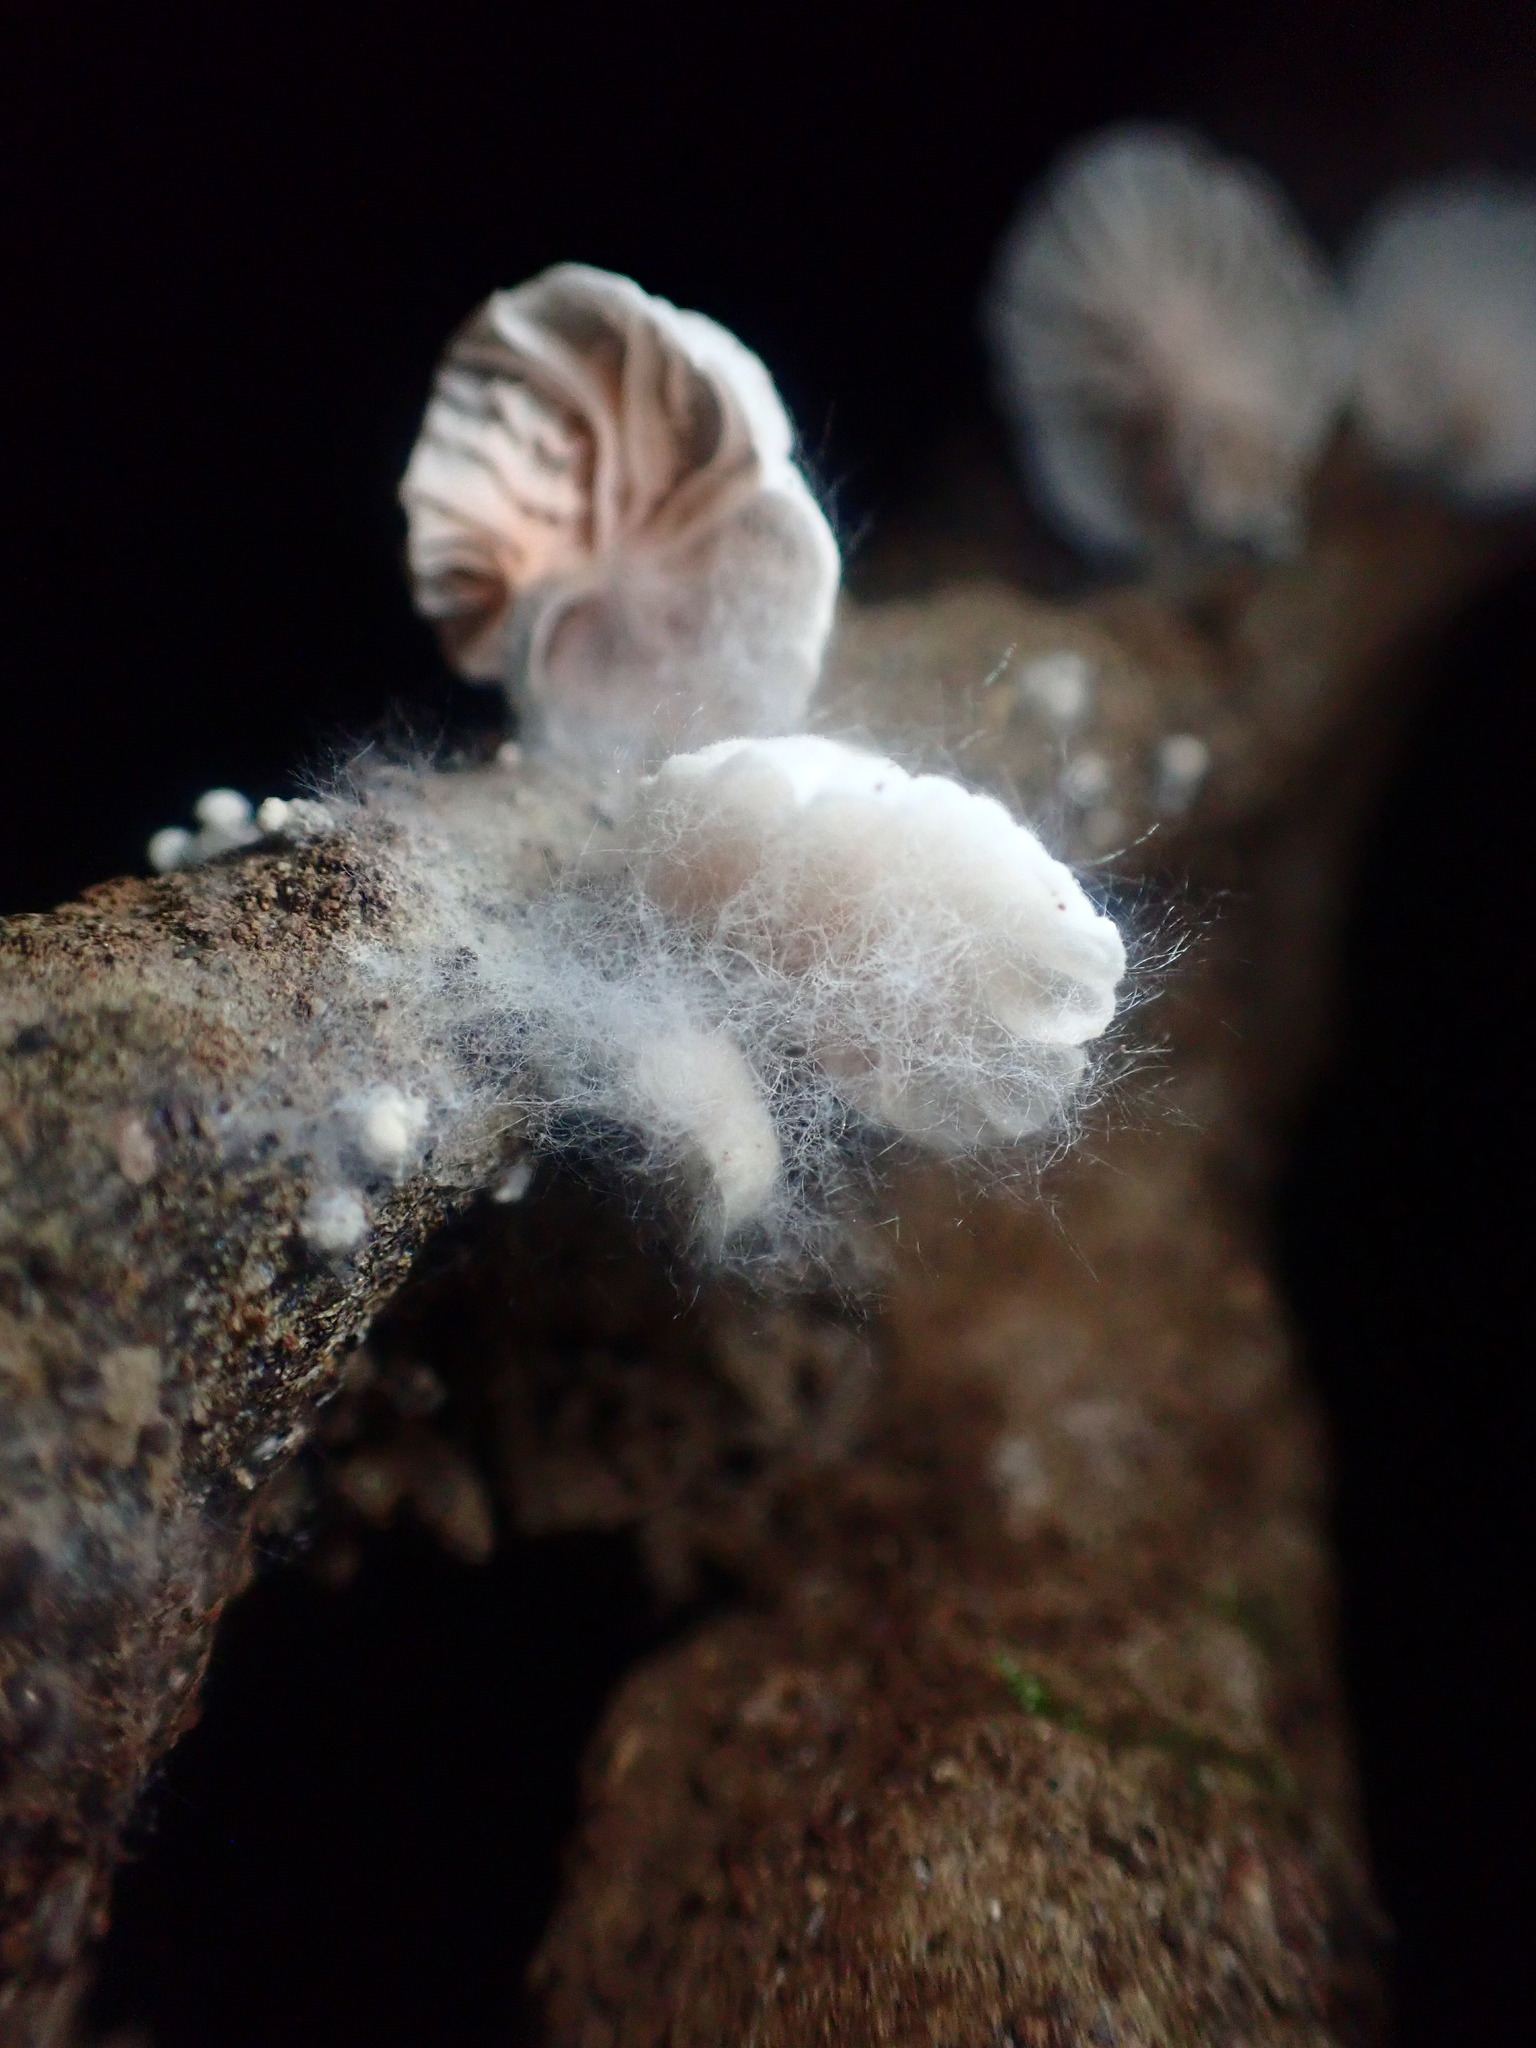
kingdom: Fungi
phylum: Basidiomycota
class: Agaricomycetes
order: Agaricales
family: Omphalotaceae
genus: Marasmiellus
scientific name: Marasmiellus candidus
